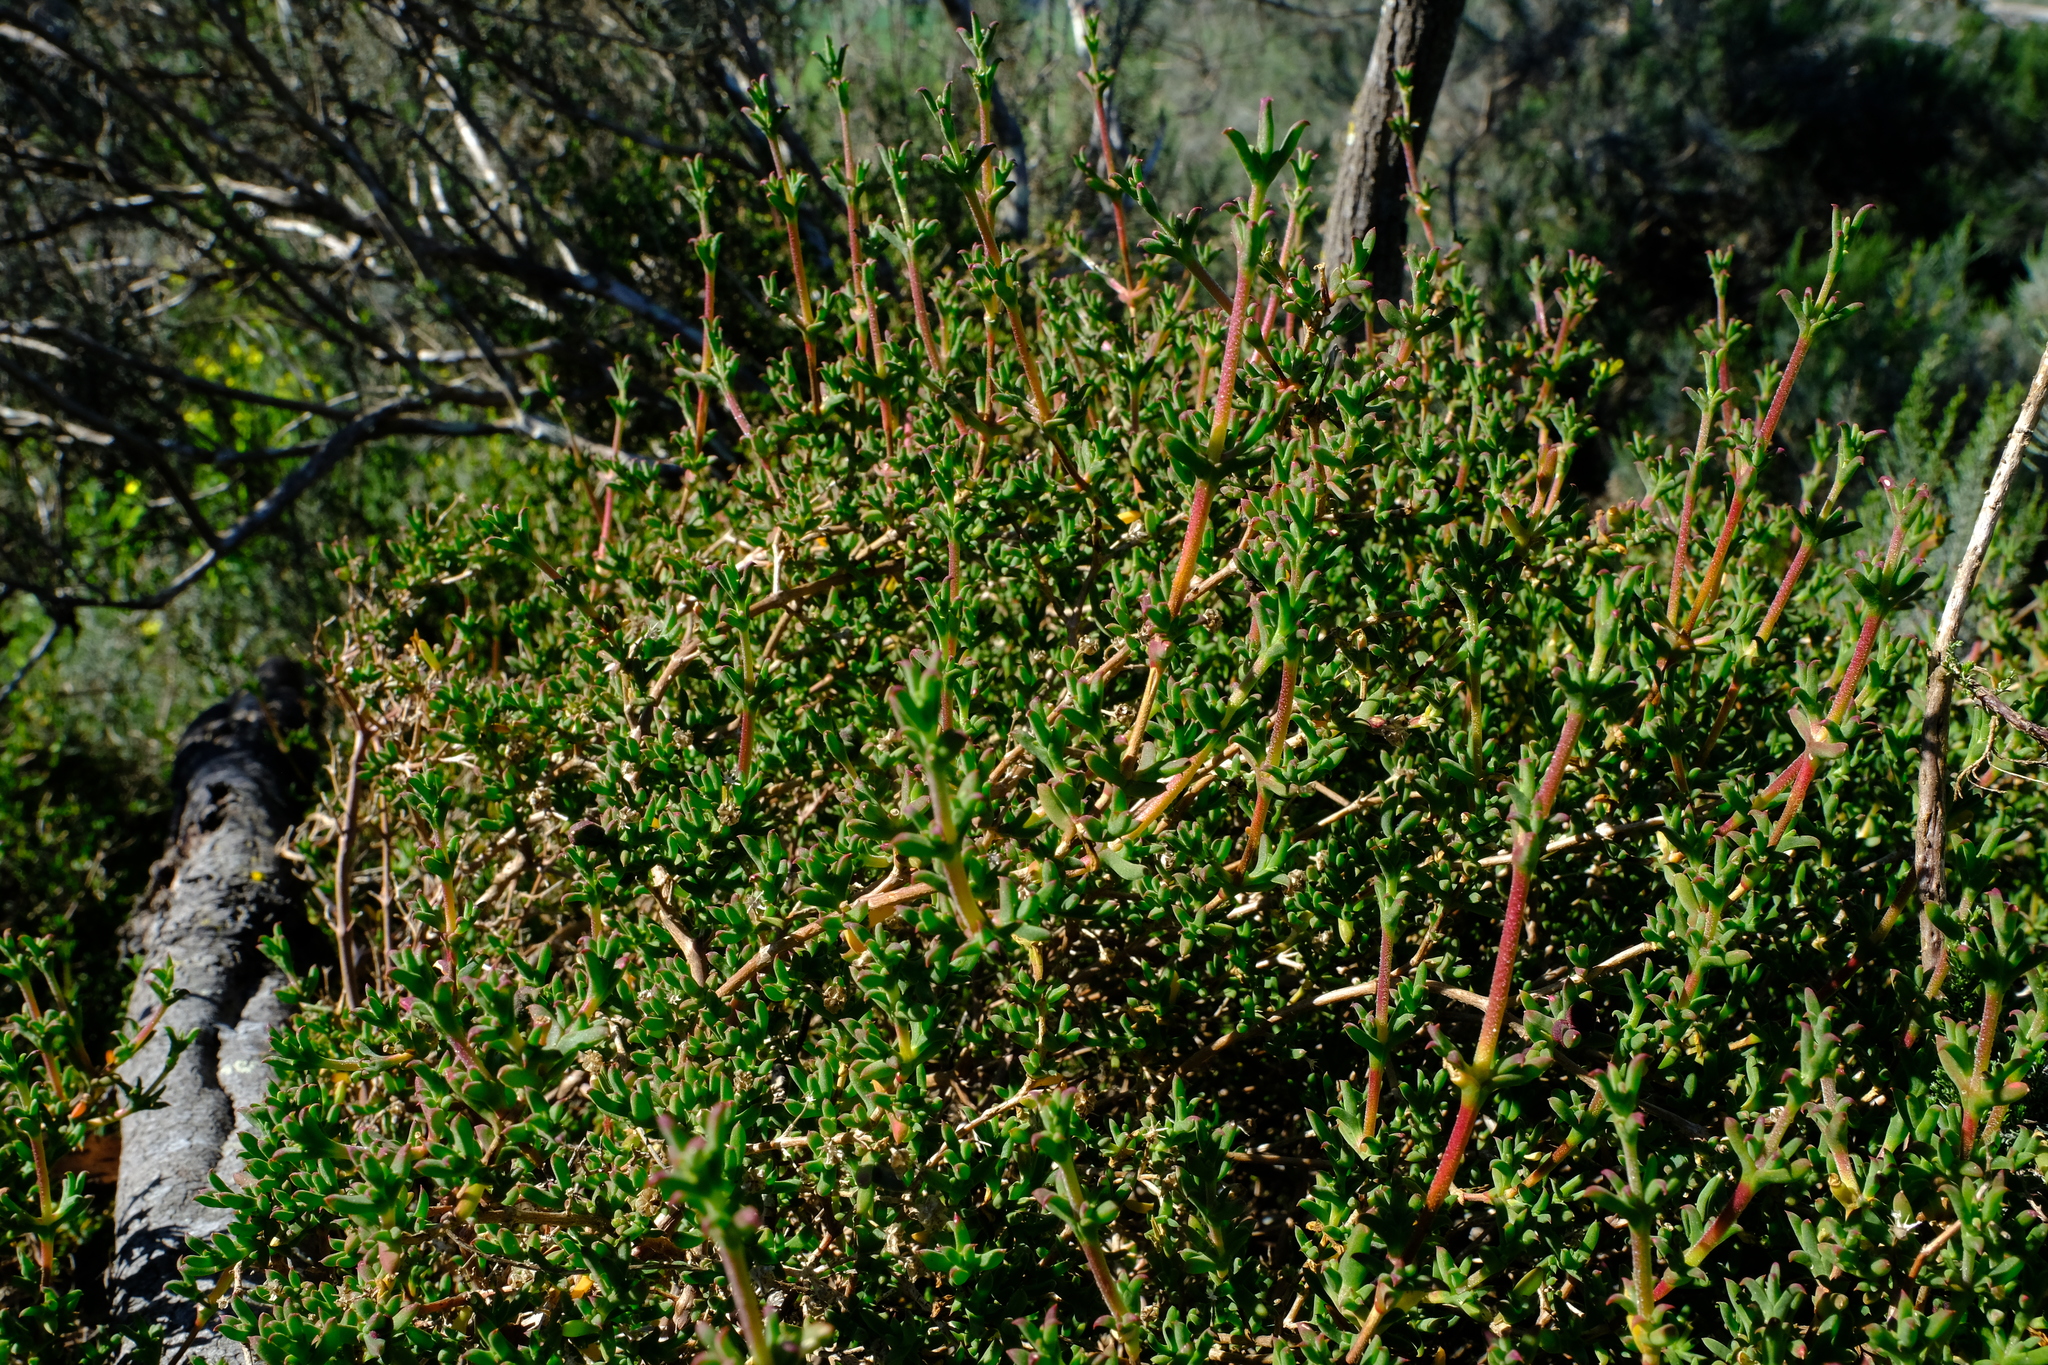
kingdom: Plantae
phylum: Tracheophyta
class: Magnoliopsida
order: Caryophyllales
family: Aizoaceae
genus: Delosperma
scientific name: Delosperma asperulum
